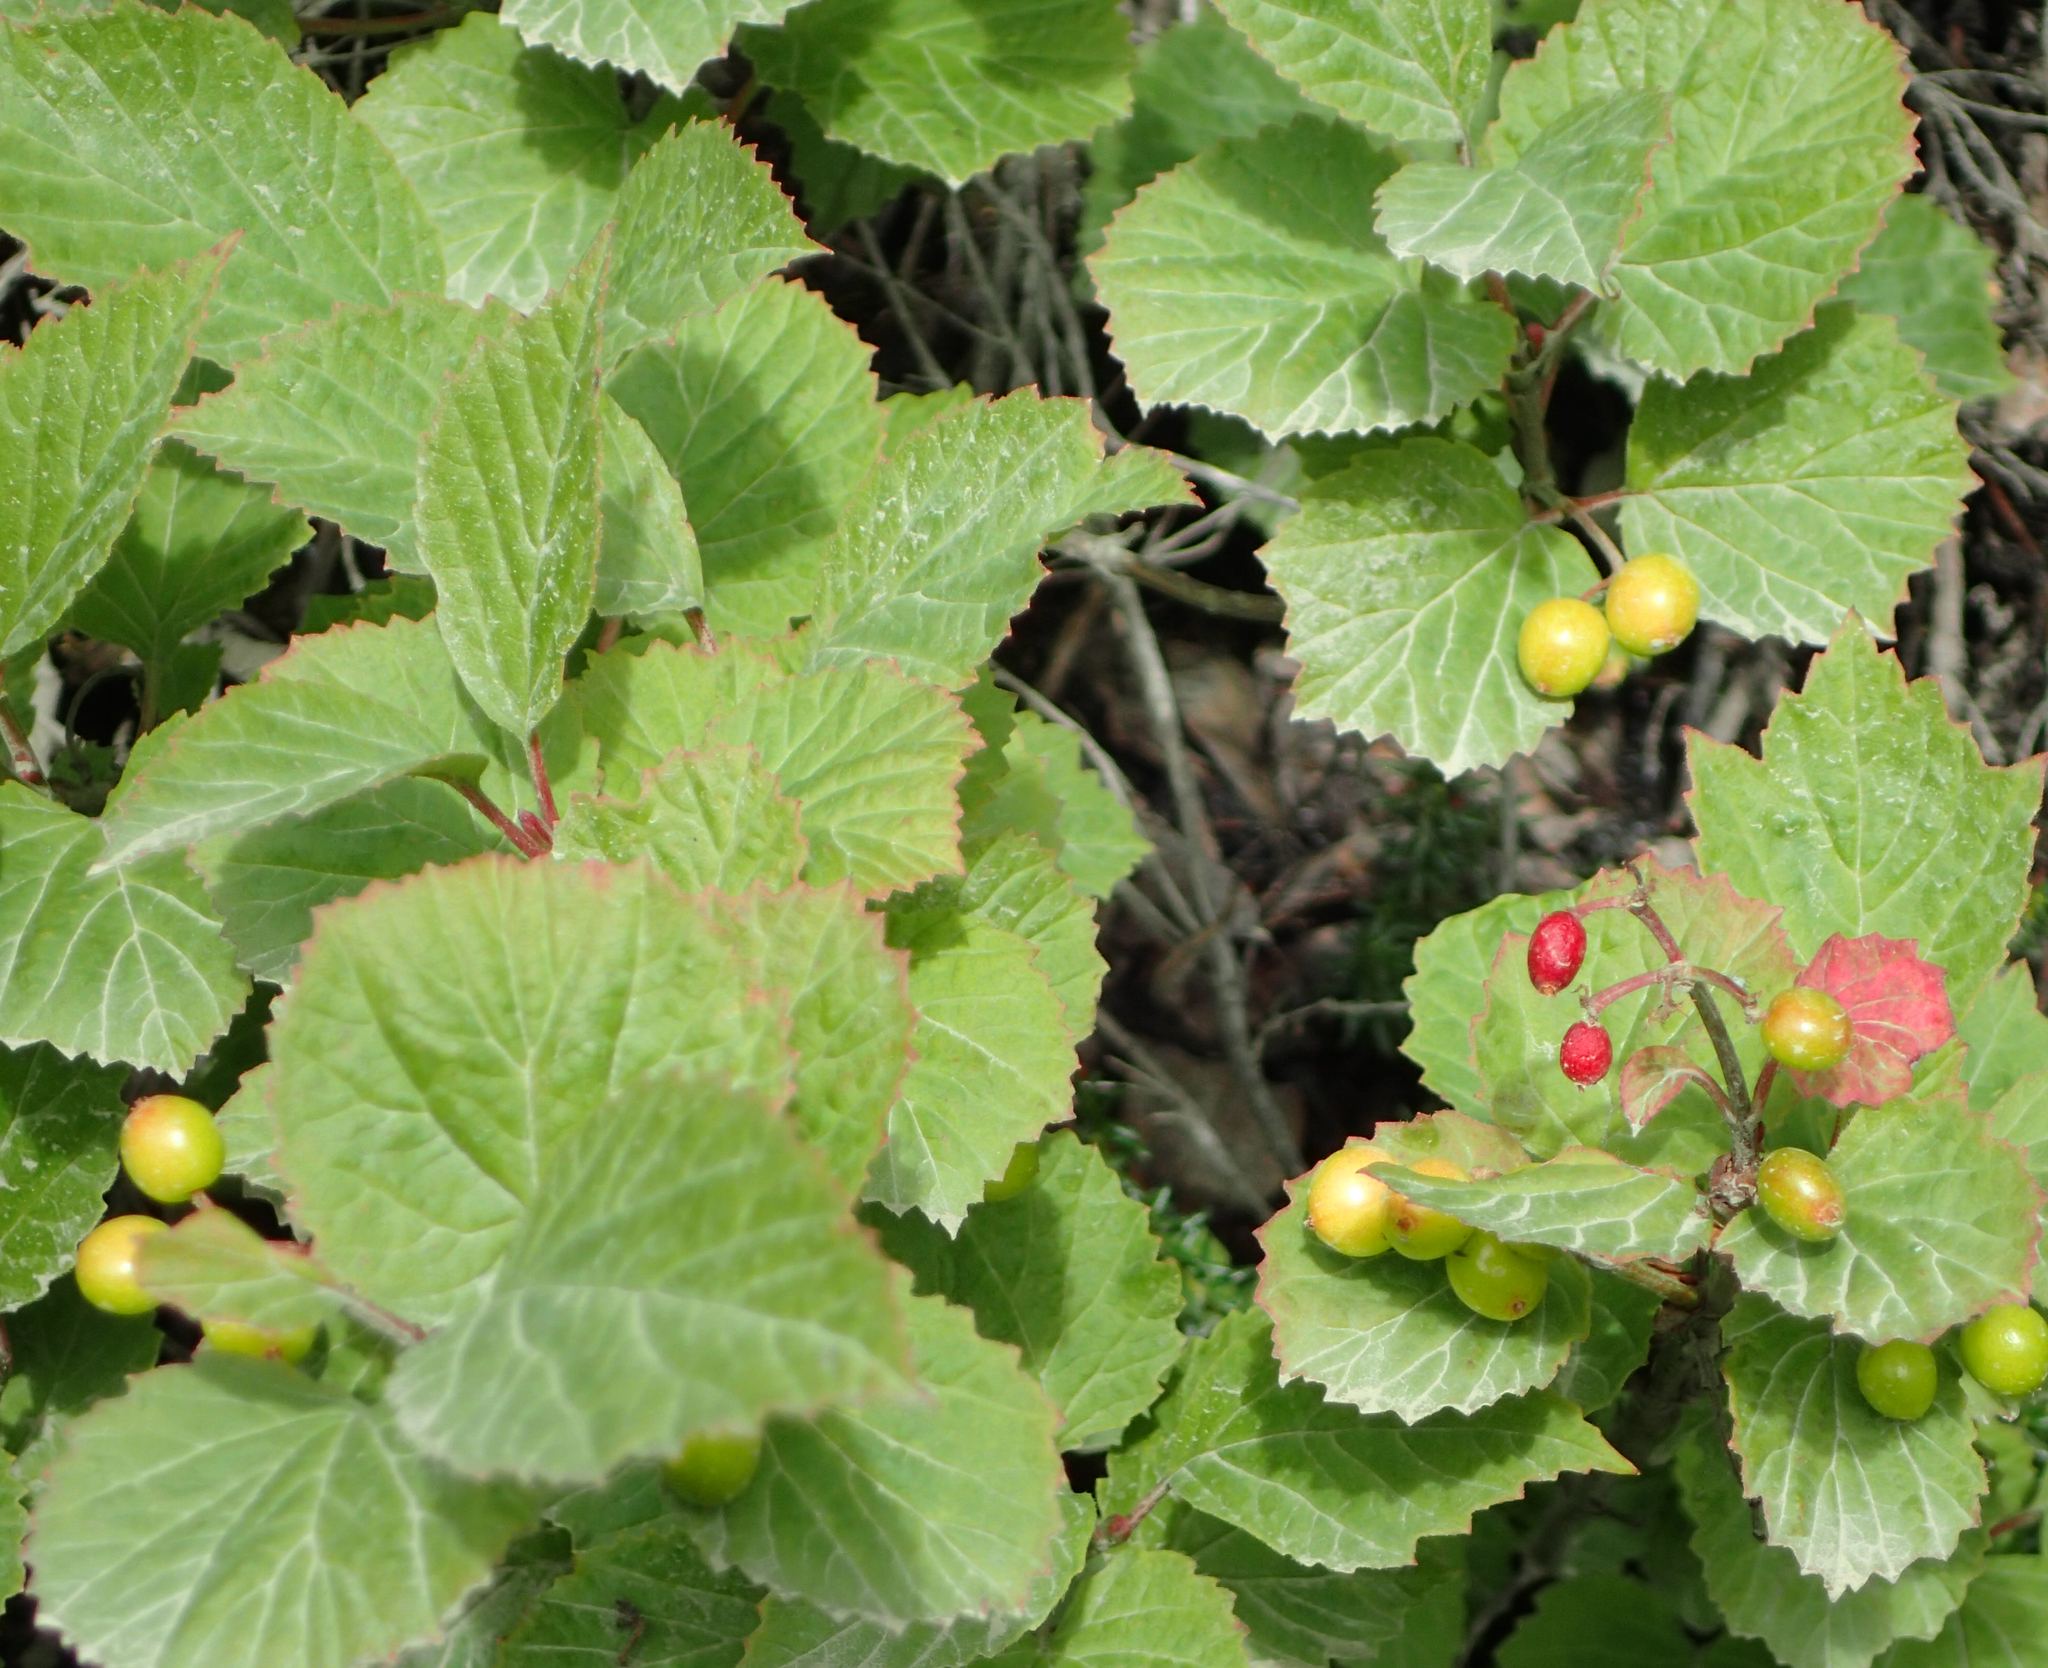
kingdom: Plantae
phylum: Tracheophyta
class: Magnoliopsida
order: Dipsacales
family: Viburnaceae
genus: Viburnum
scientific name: Viburnum edule
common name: Mooseberry
